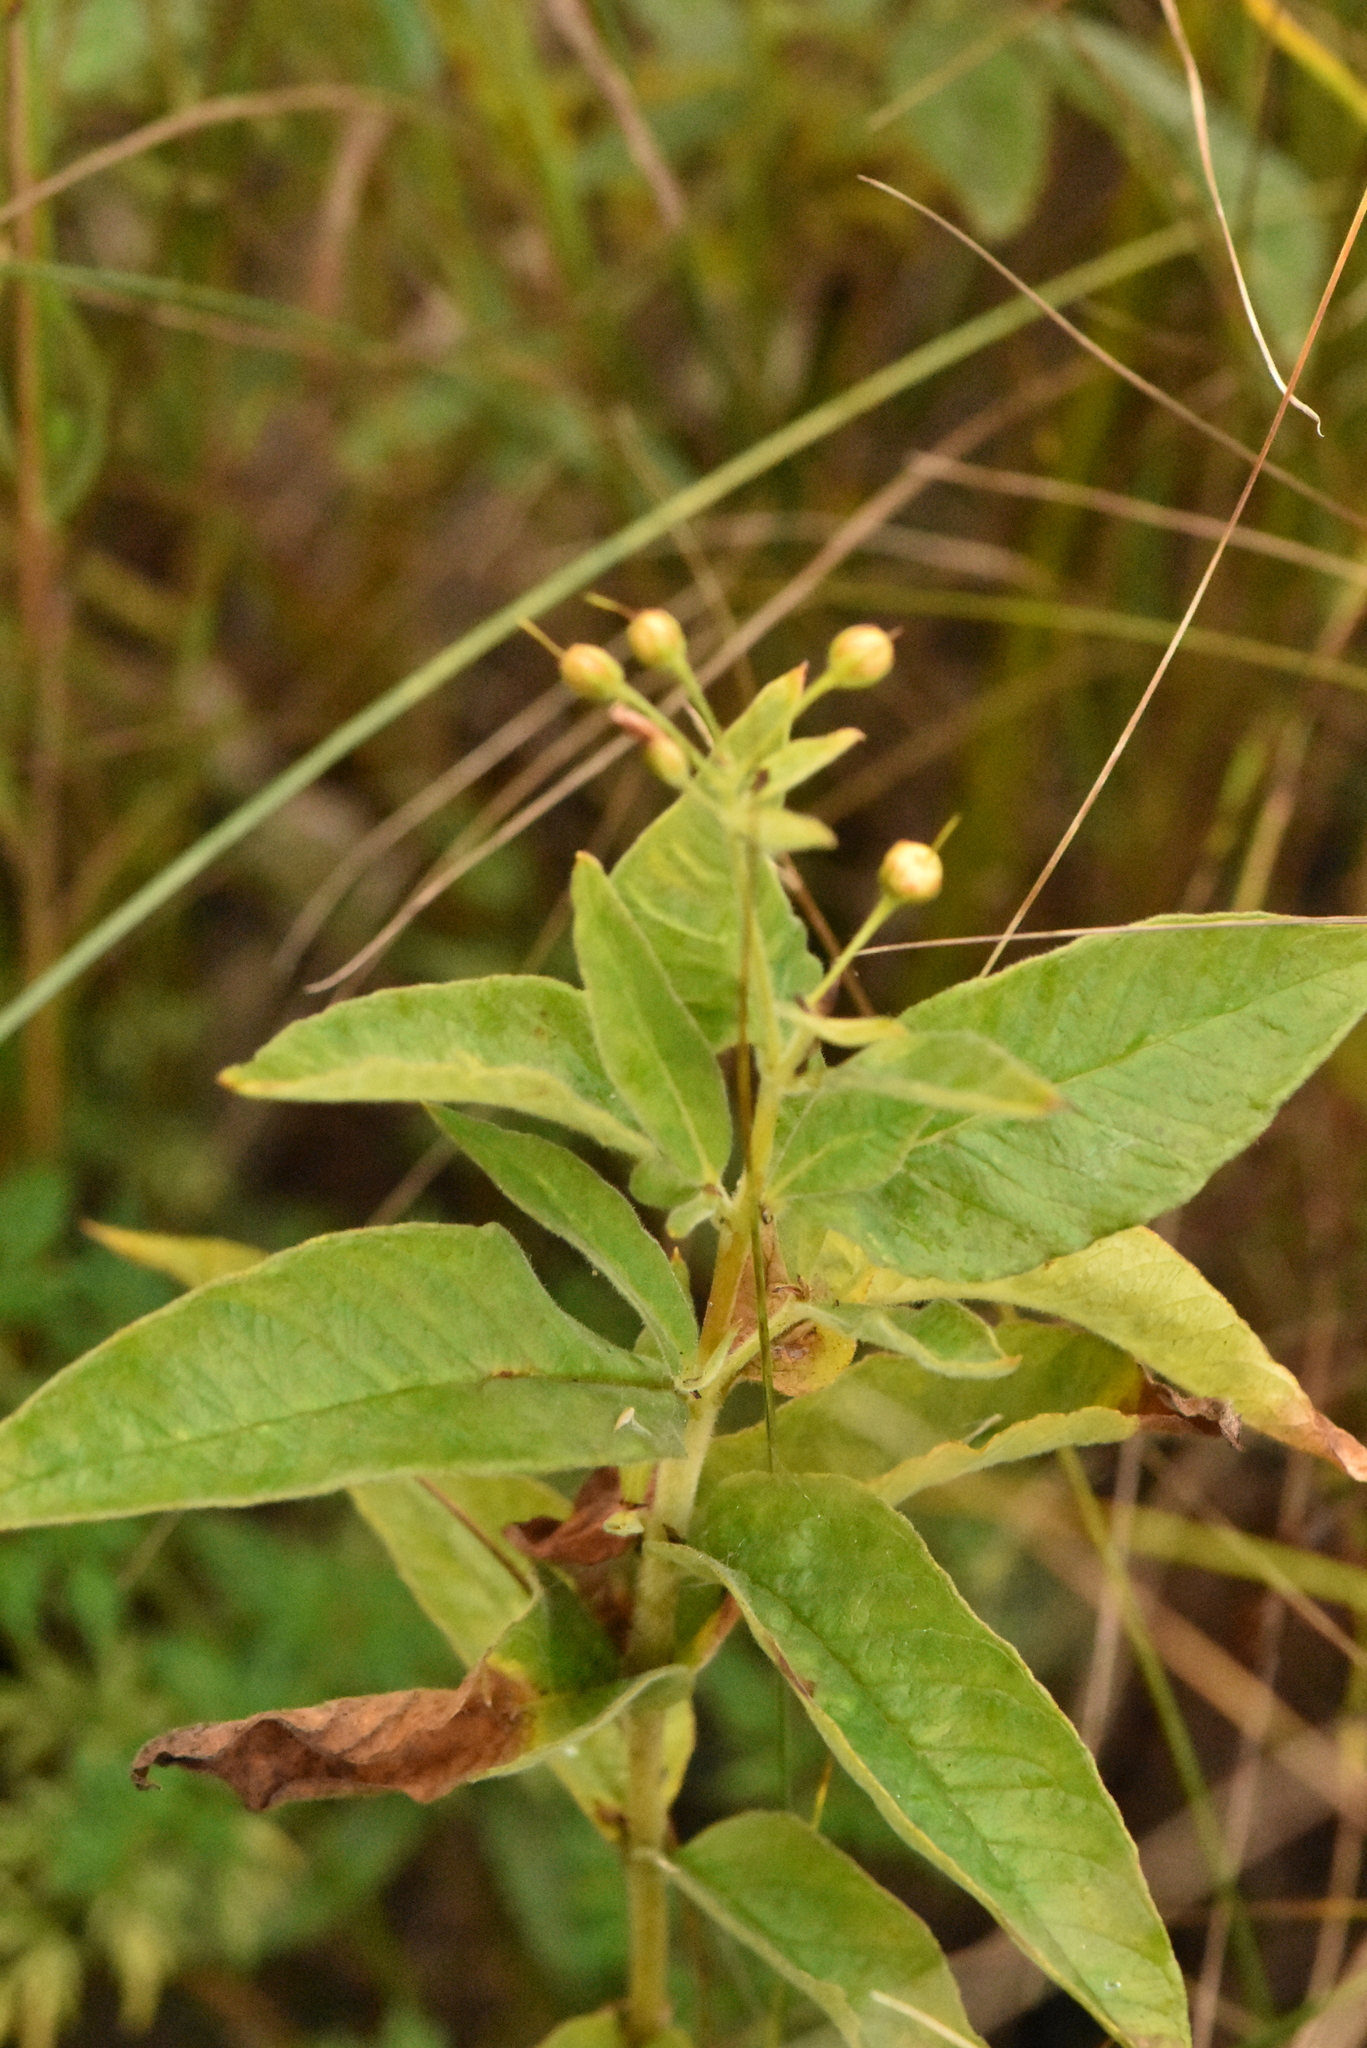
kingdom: Plantae
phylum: Tracheophyta
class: Magnoliopsida
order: Ericales
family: Primulaceae
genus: Lysimachia
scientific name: Lysimachia vulgaris
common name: Yellow loosestrife
